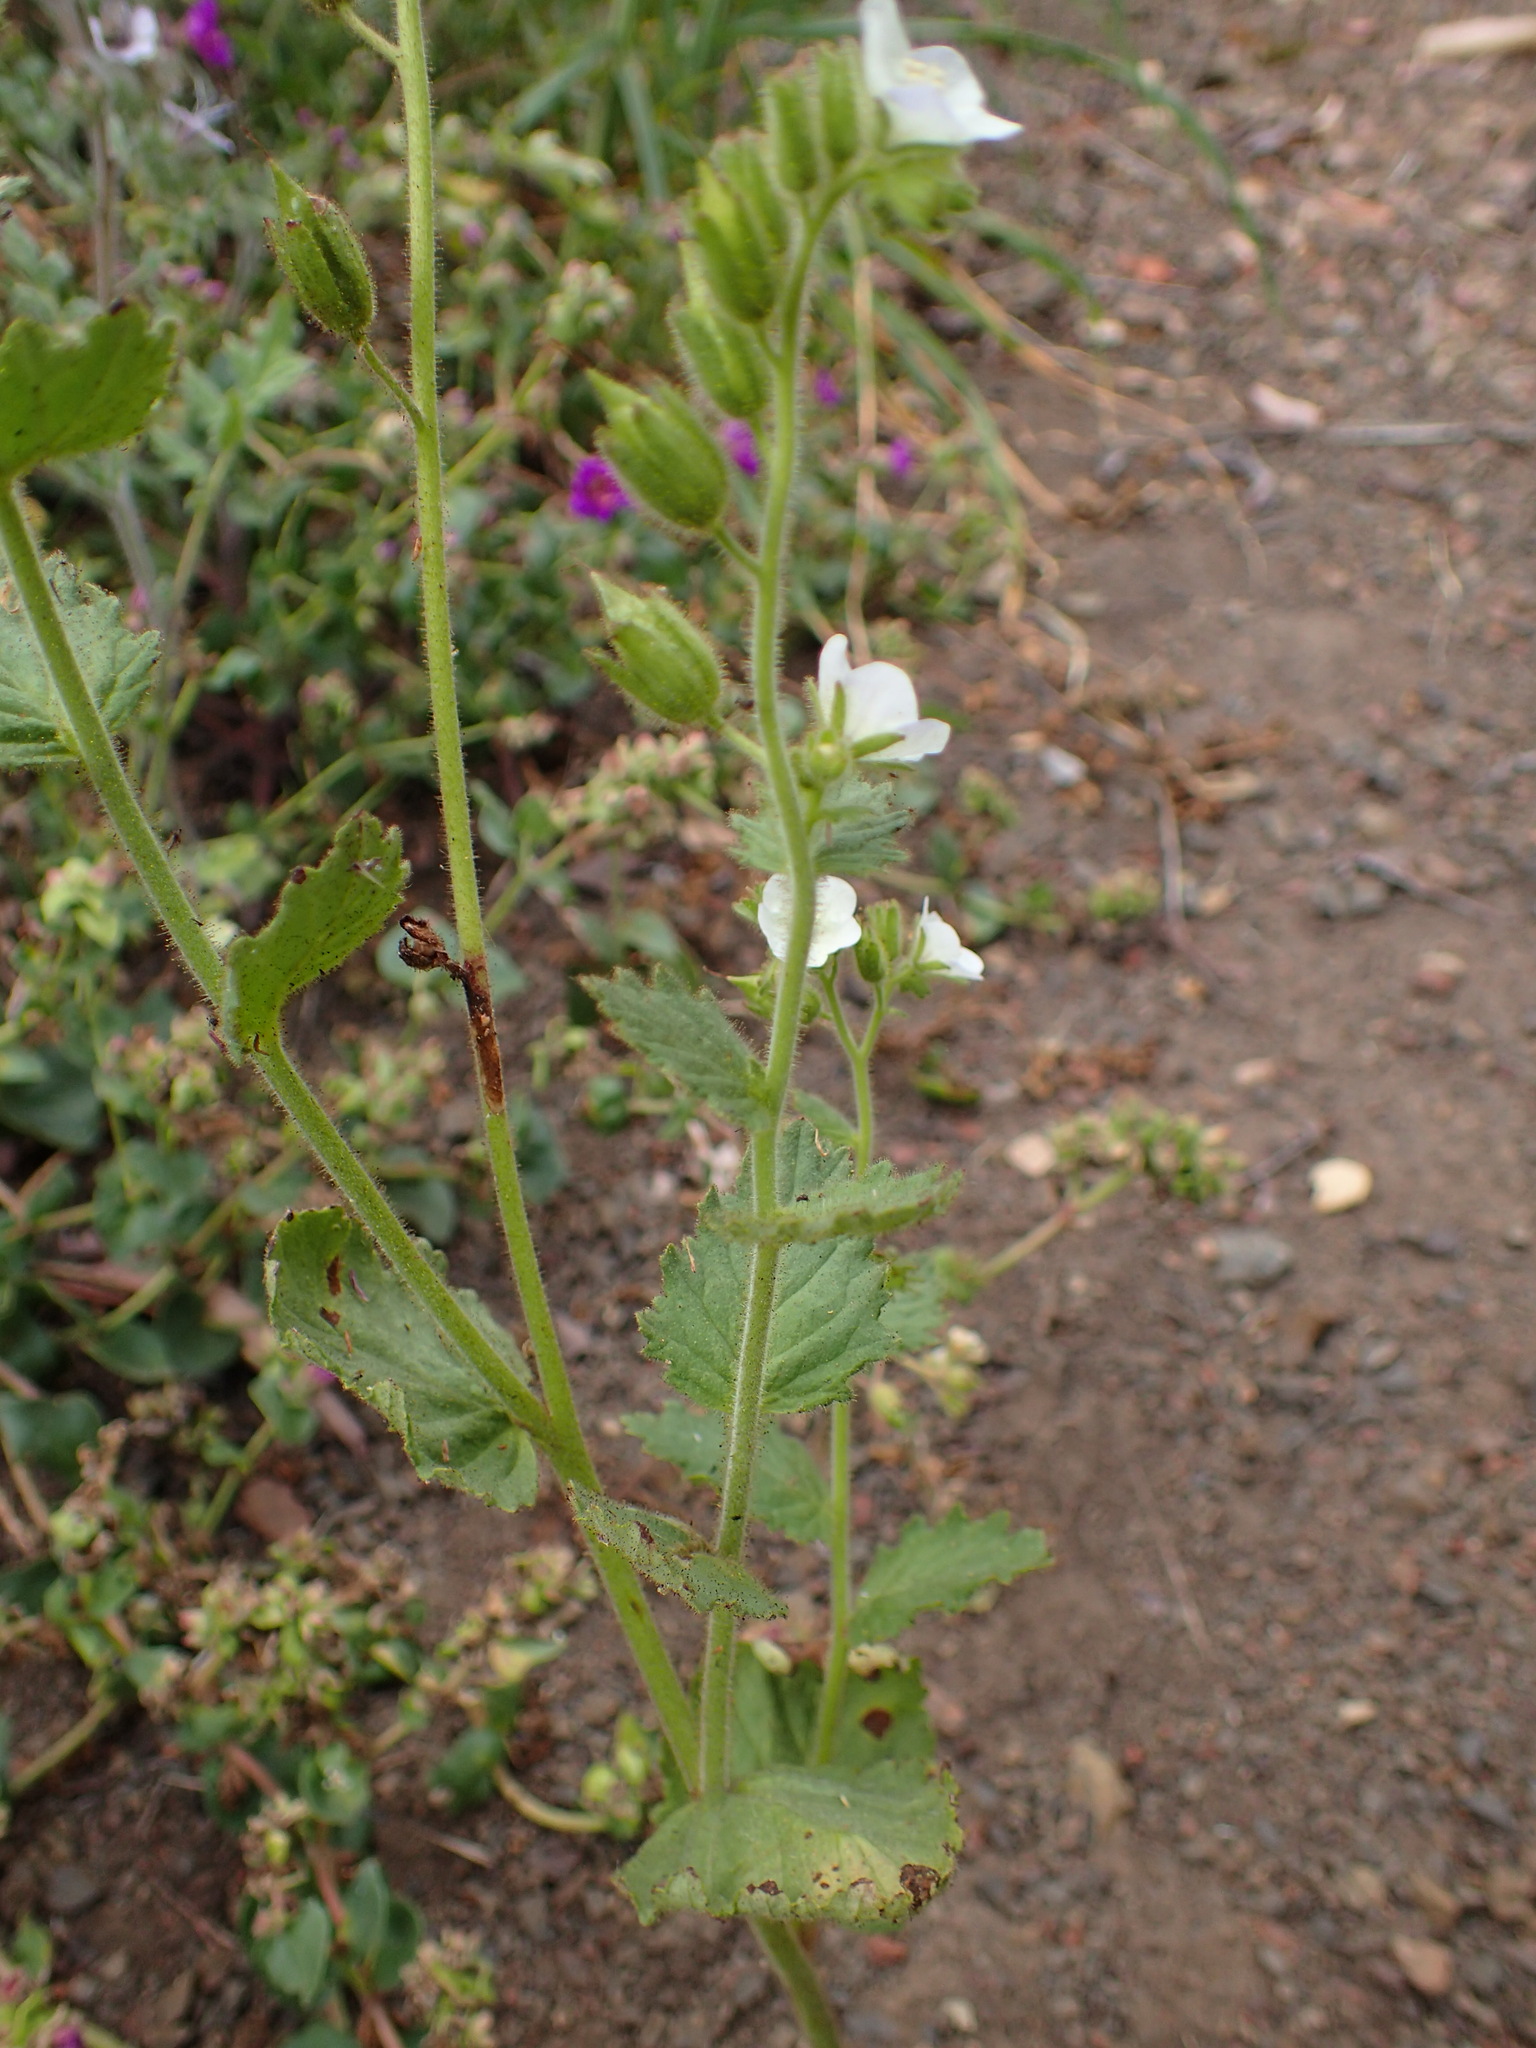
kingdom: Plantae
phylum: Tracheophyta
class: Magnoliopsida
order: Boraginales
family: Hydrophyllaceae
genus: Phacelia
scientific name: Phacelia viscida
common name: Sticky phacelia
